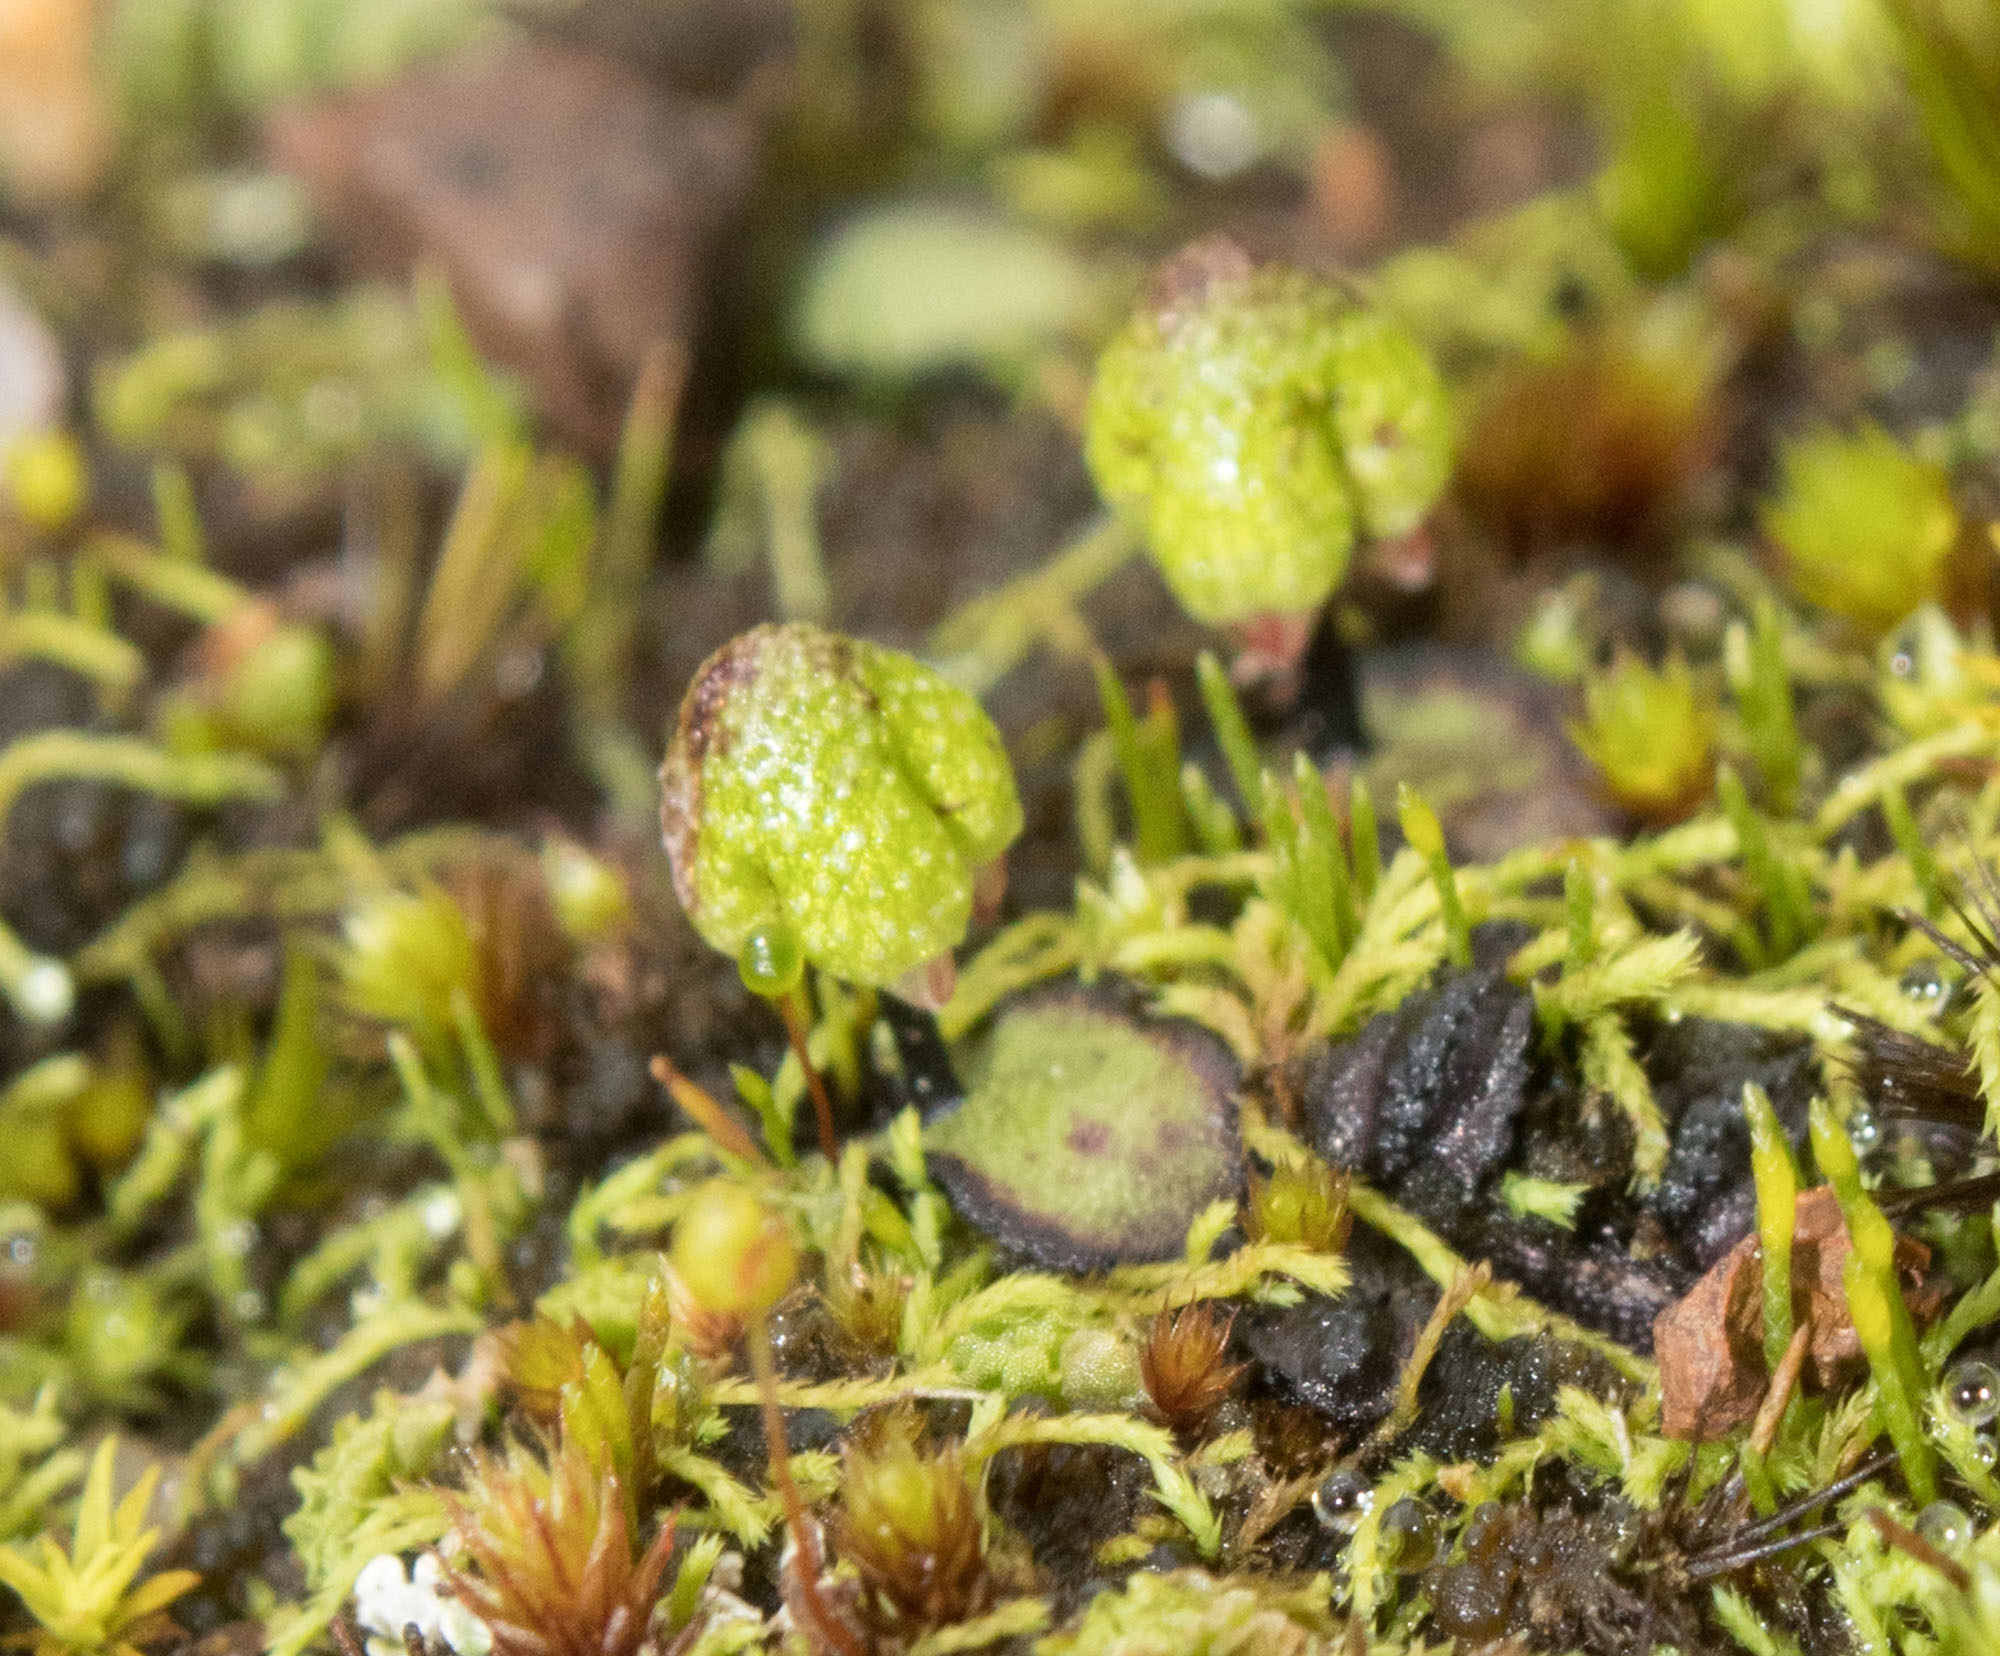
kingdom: Plantae
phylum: Marchantiophyta
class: Marchantiopsida
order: Marchantiales
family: Aytoniaceae
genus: Asterella
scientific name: Asterella drummondii
